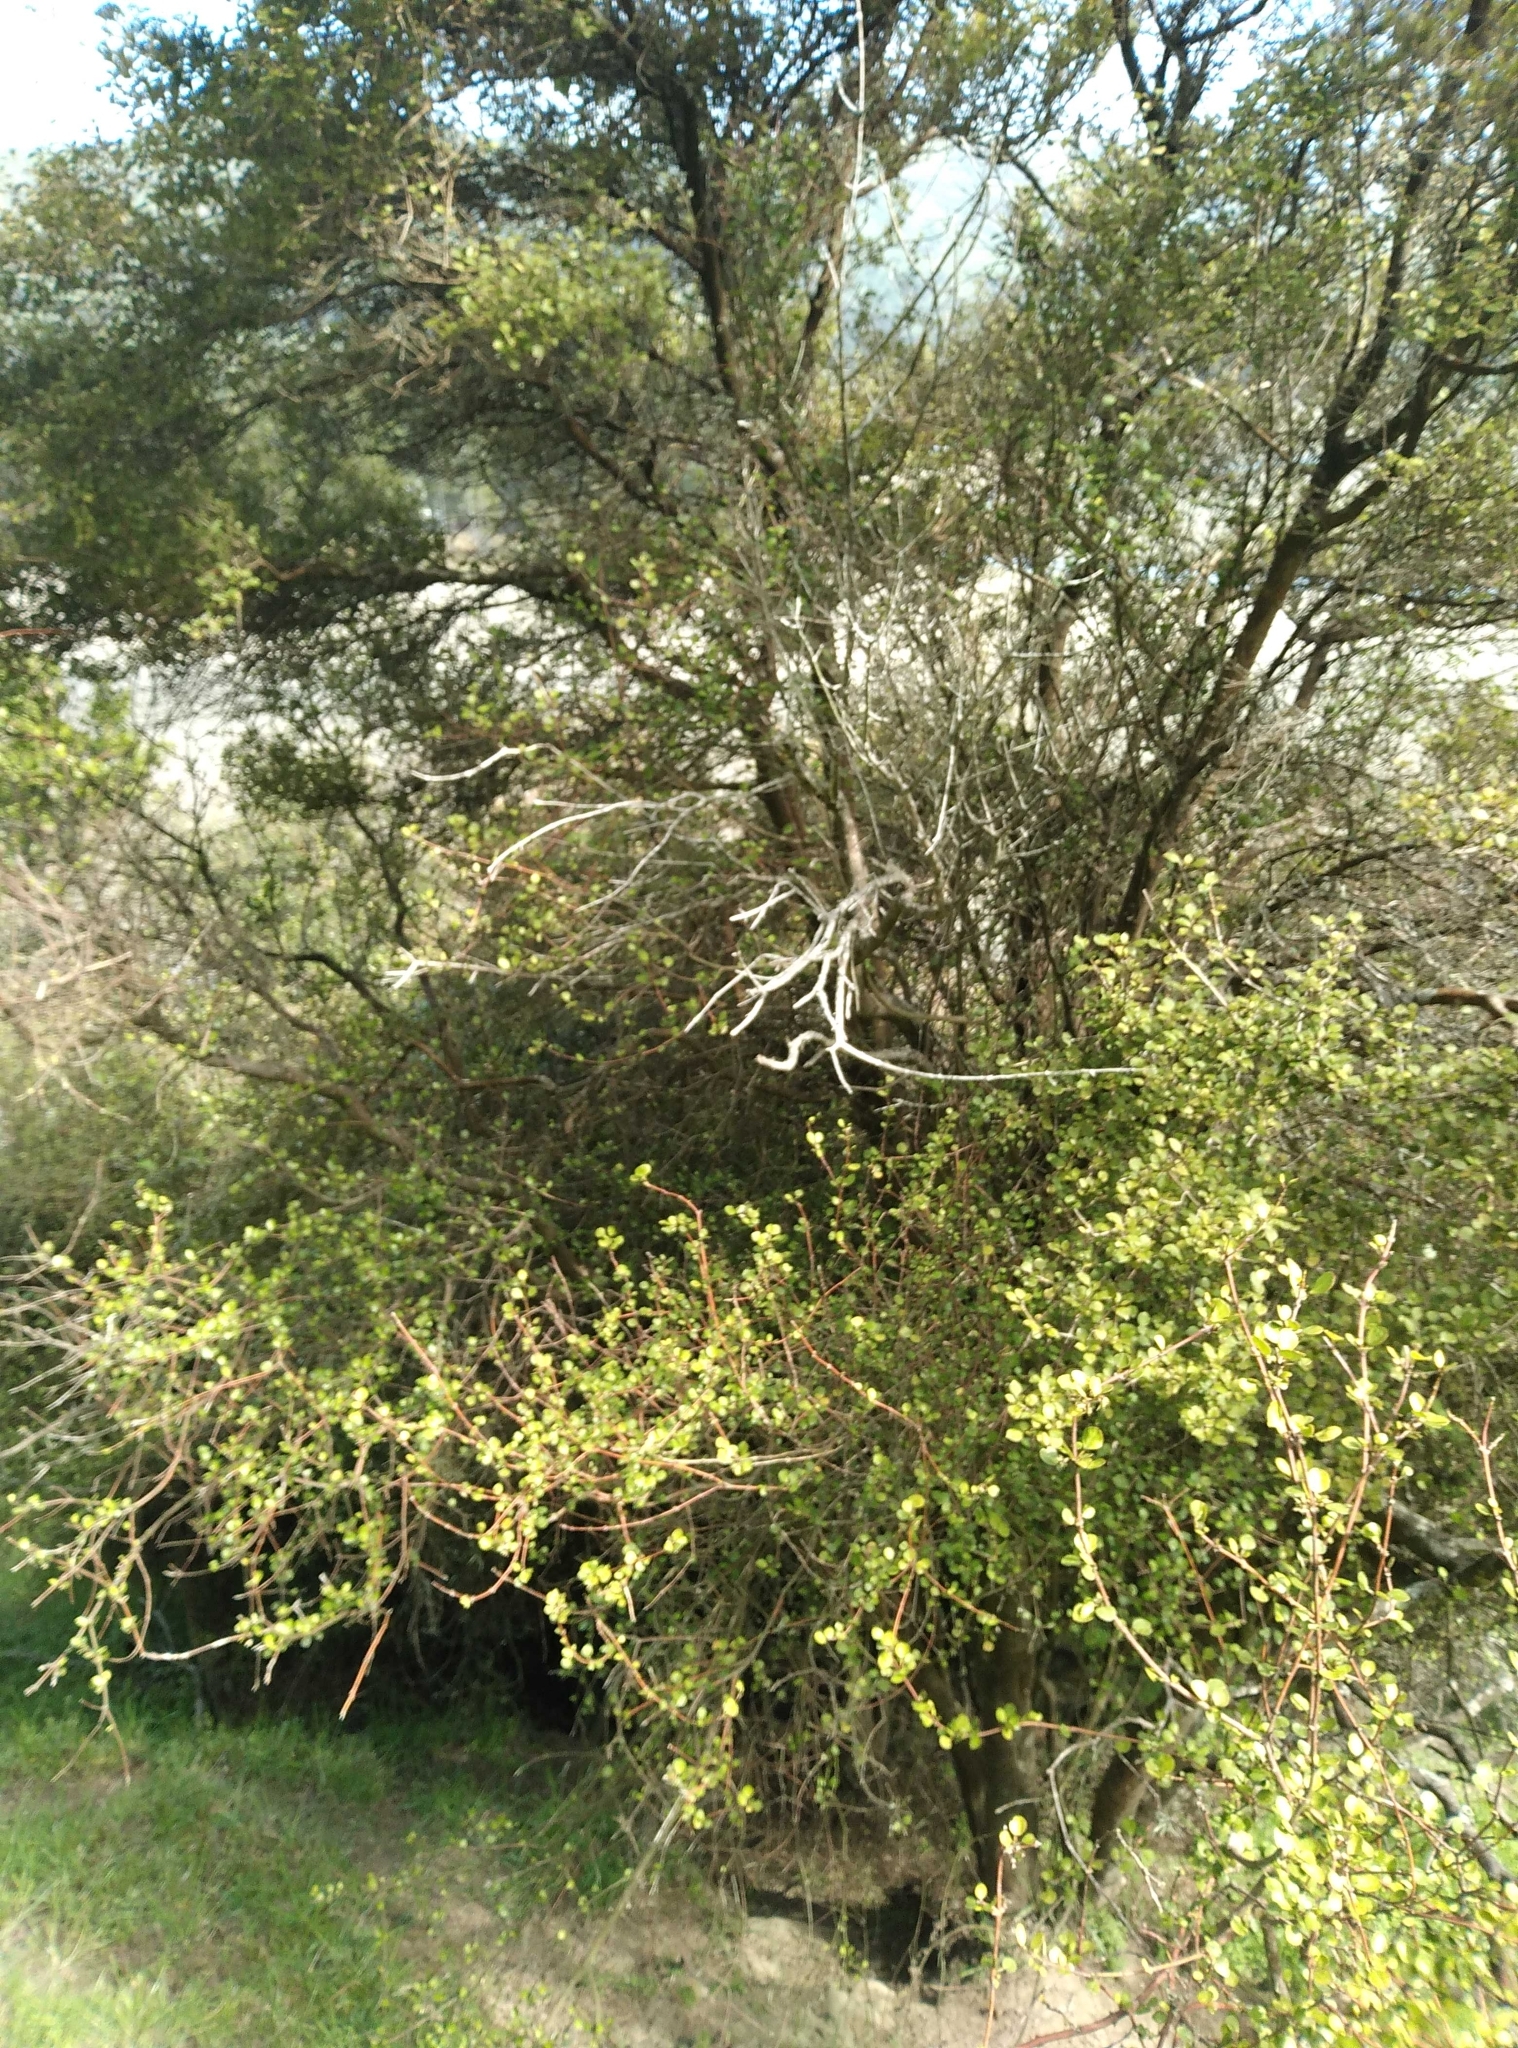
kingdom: Plantae
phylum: Tracheophyta
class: Magnoliopsida
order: Sapindales
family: Rutaceae
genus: Melicope
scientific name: Melicope simplex
